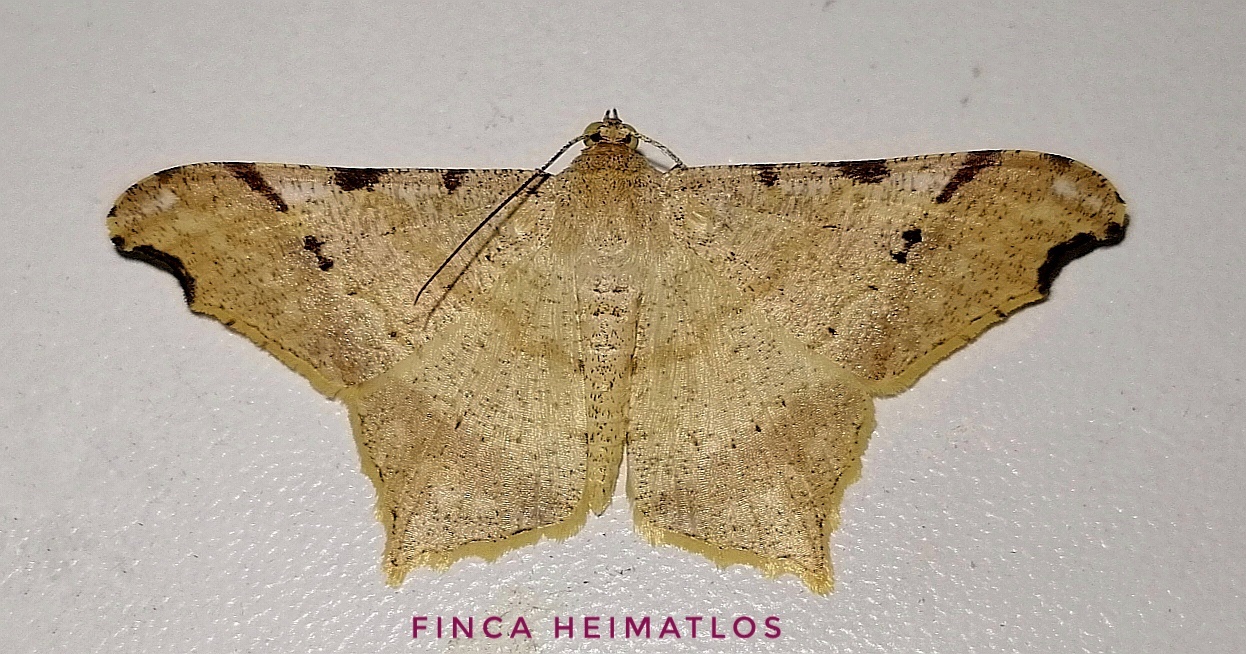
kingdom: Animalia
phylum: Arthropoda
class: Insecta
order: Lepidoptera
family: Geometridae
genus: Macaria
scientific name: Macaria achetata
